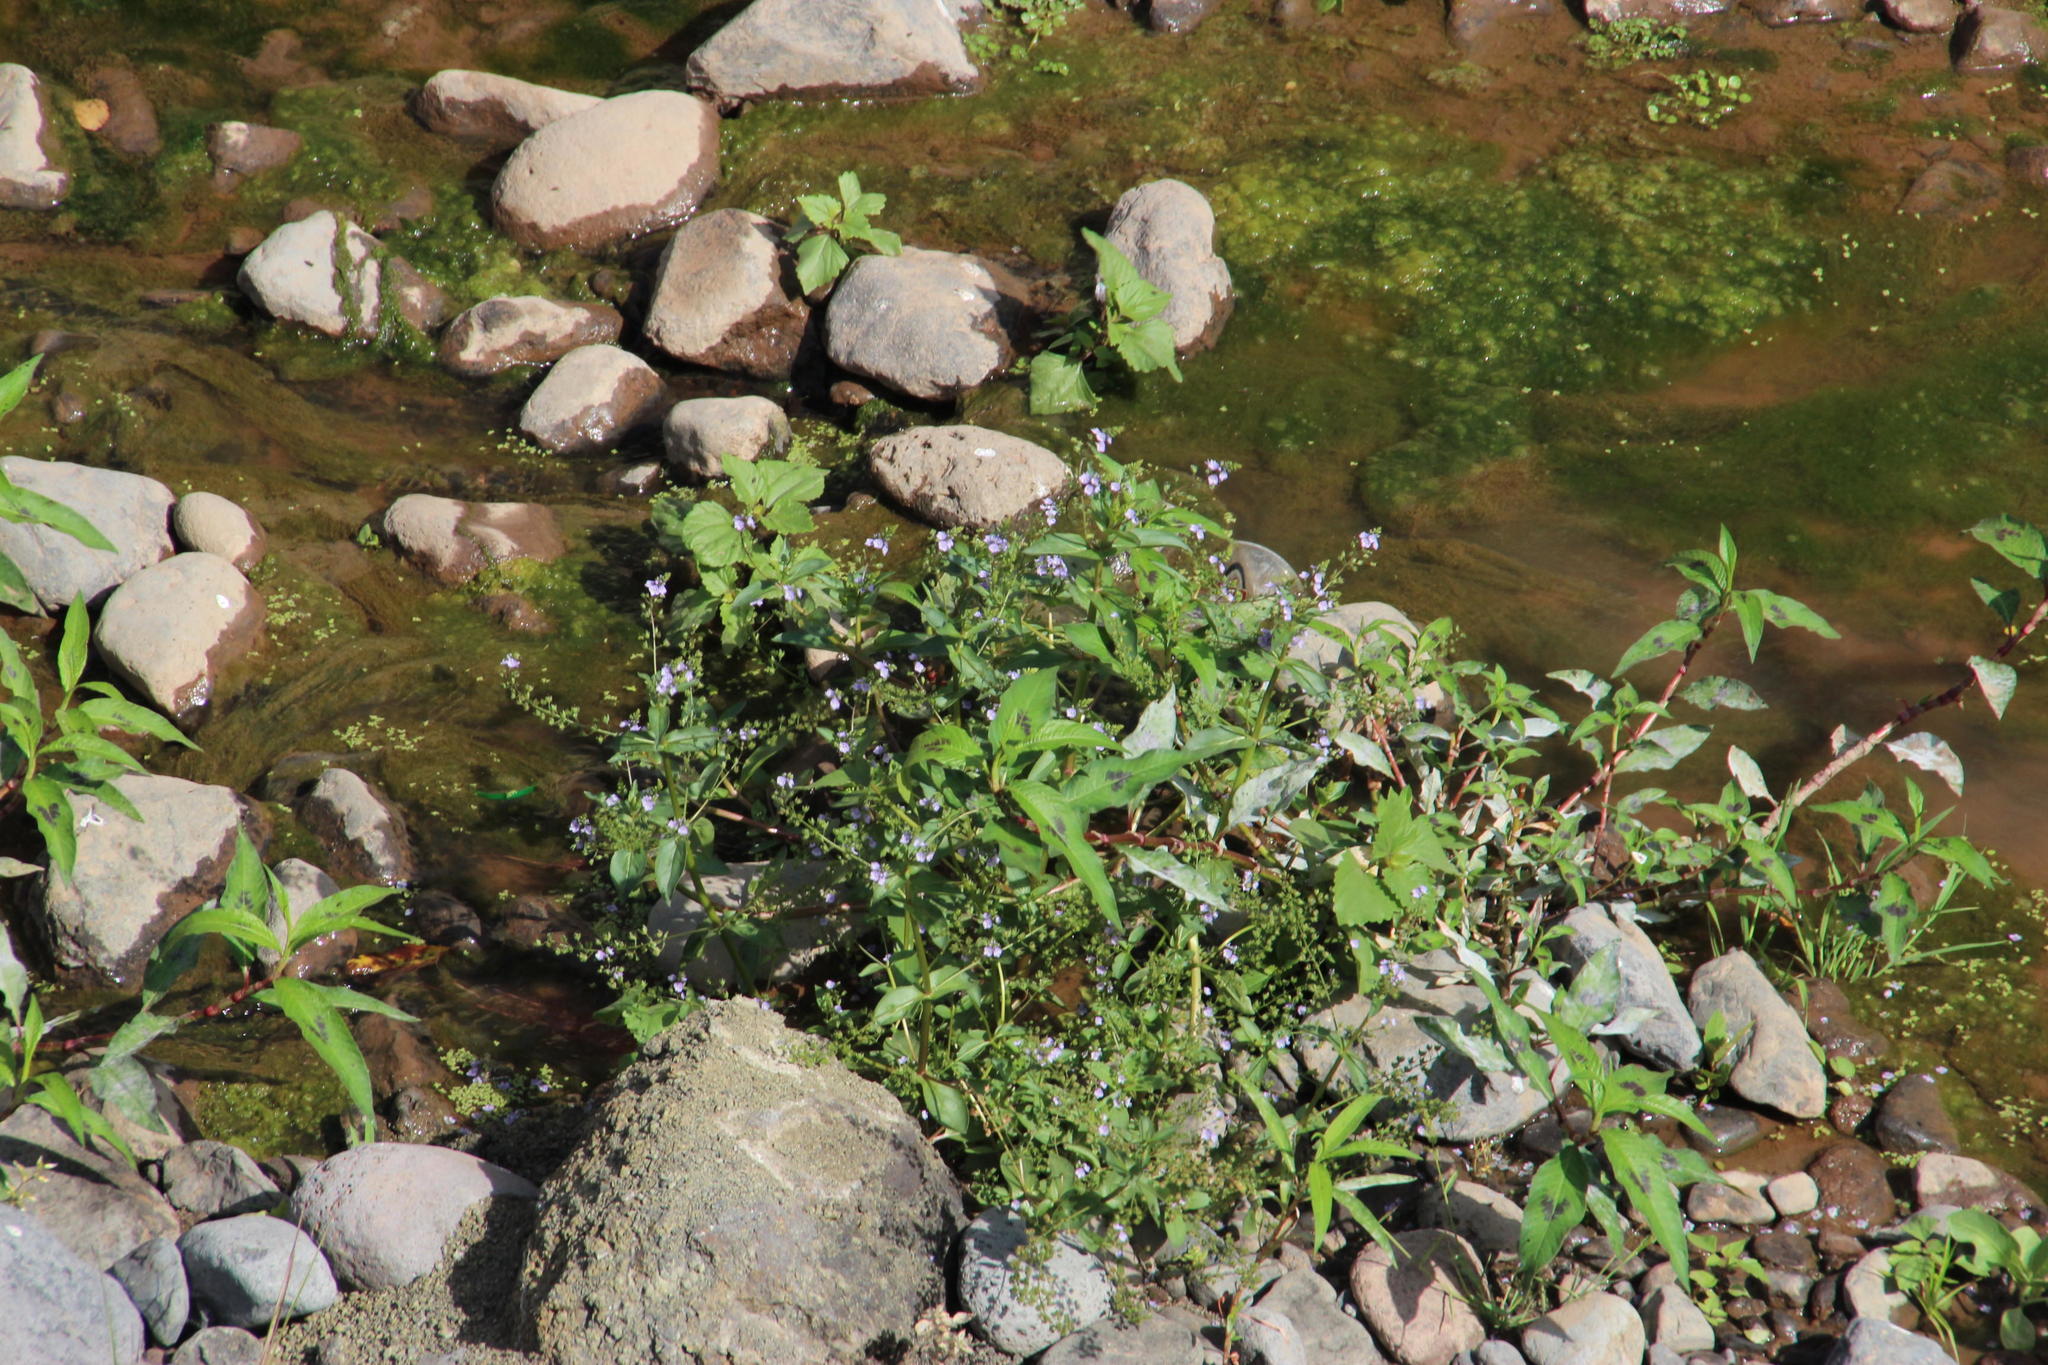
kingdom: Plantae
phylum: Tracheophyta
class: Magnoliopsida
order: Lamiales
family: Plantaginaceae
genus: Veronica
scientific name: Veronica anagallis-aquatica
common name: Water speedwell
